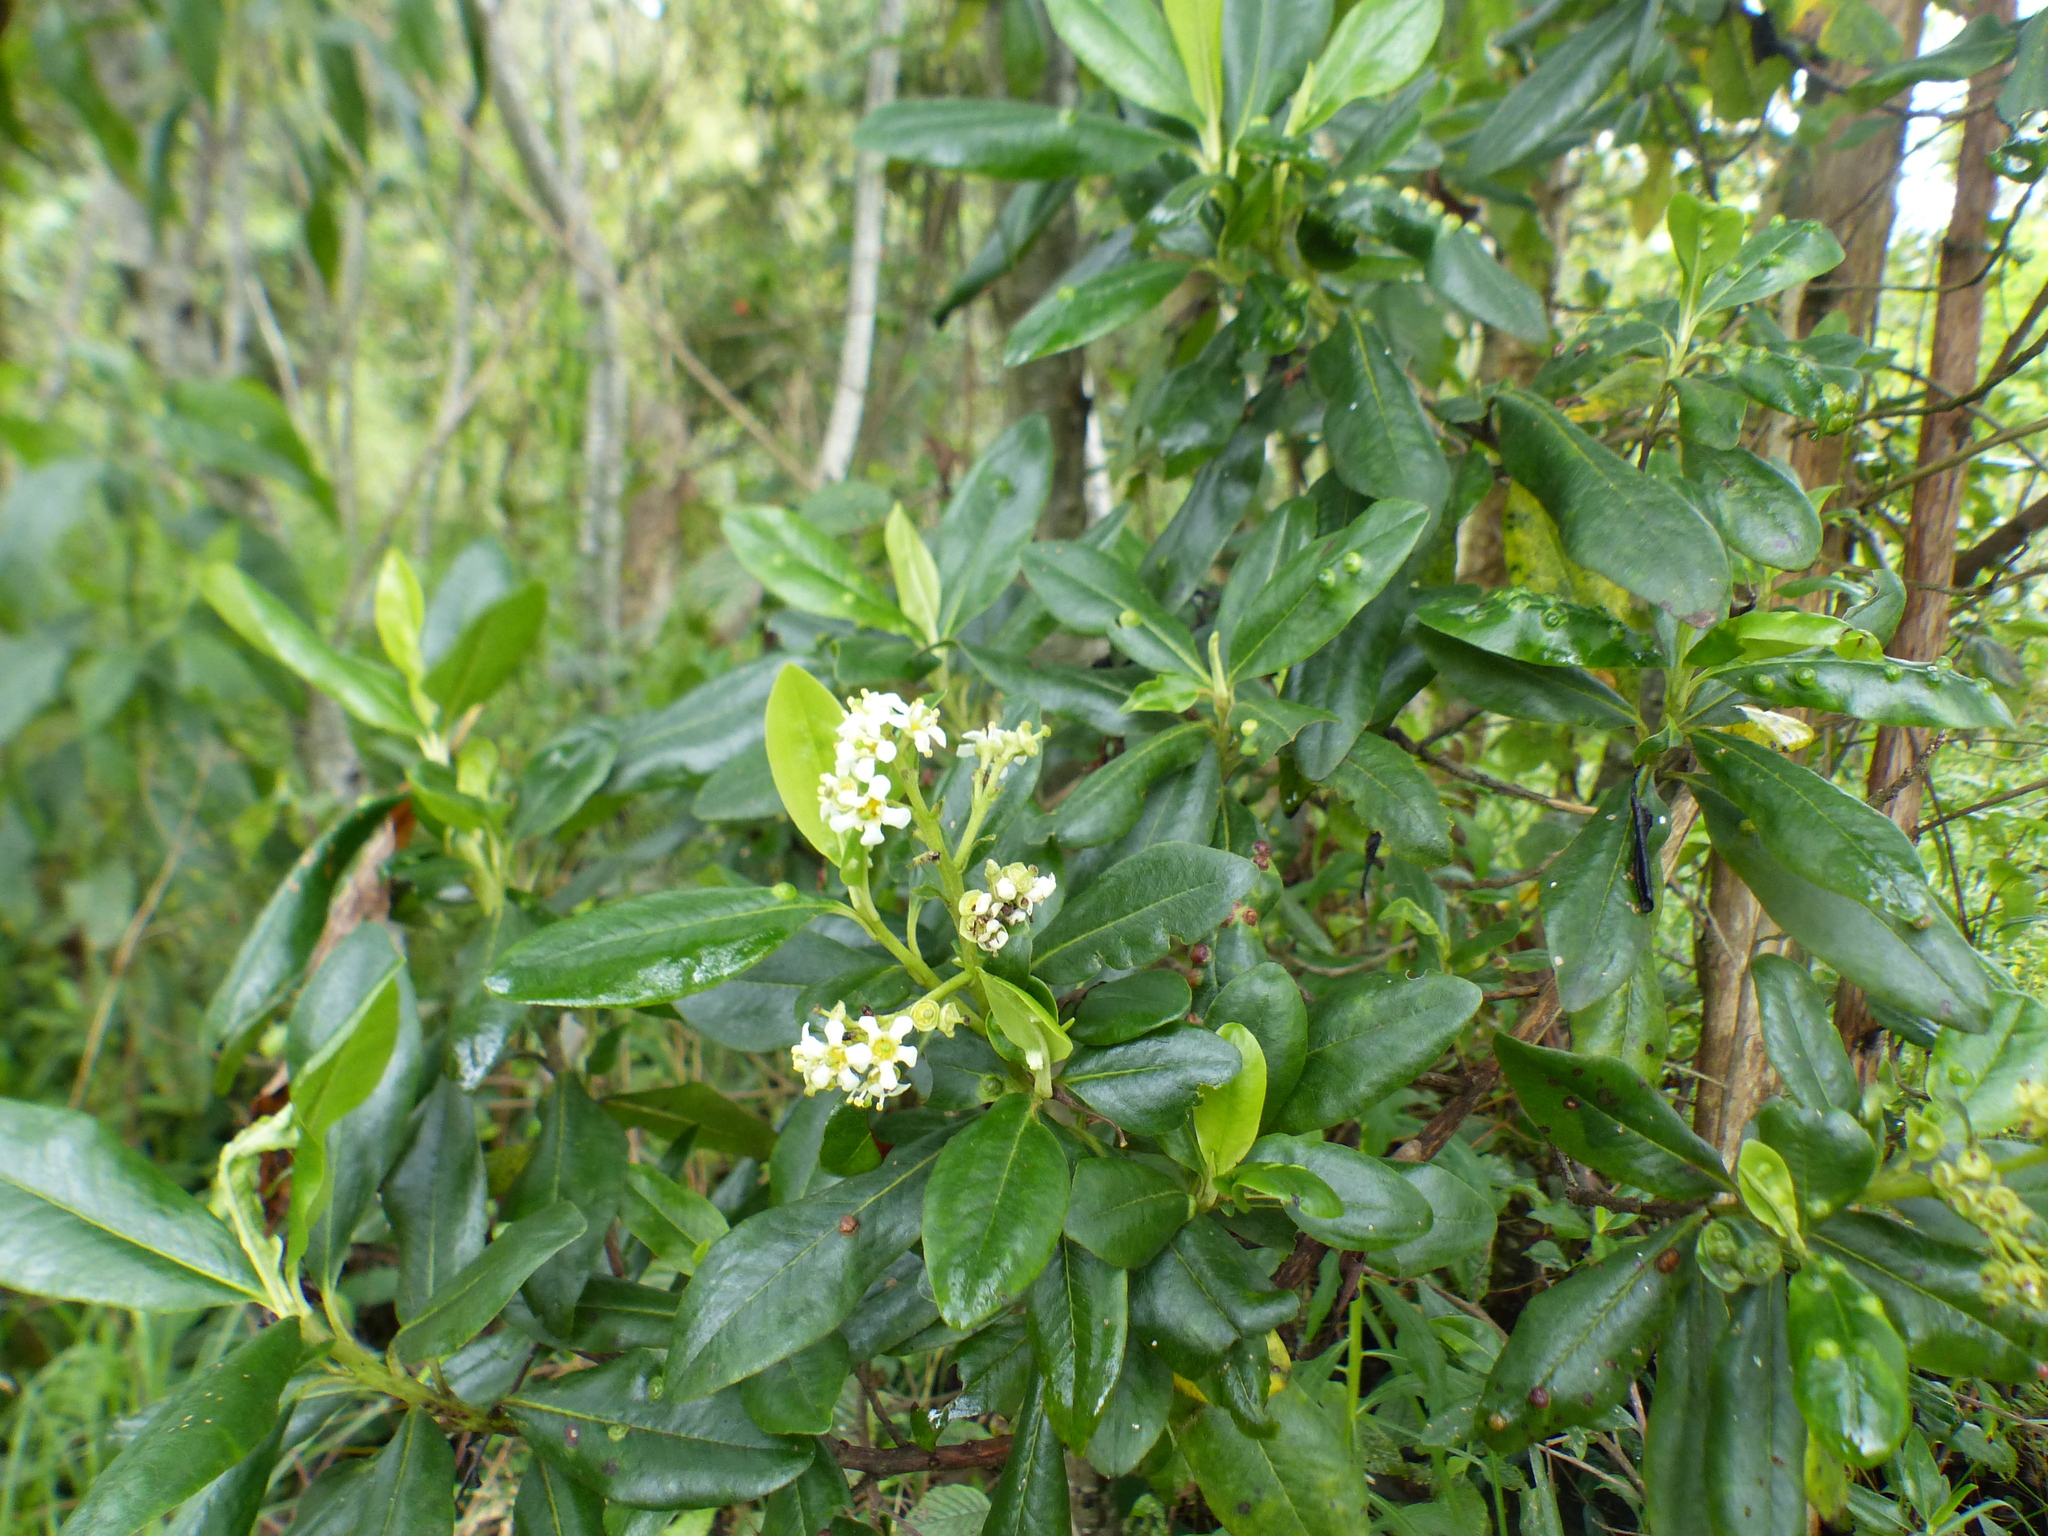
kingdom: Plantae
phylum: Tracheophyta
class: Magnoliopsida
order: Escalloniales
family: Escalloniaceae
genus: Escallonia
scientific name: Escallonia paniculata
